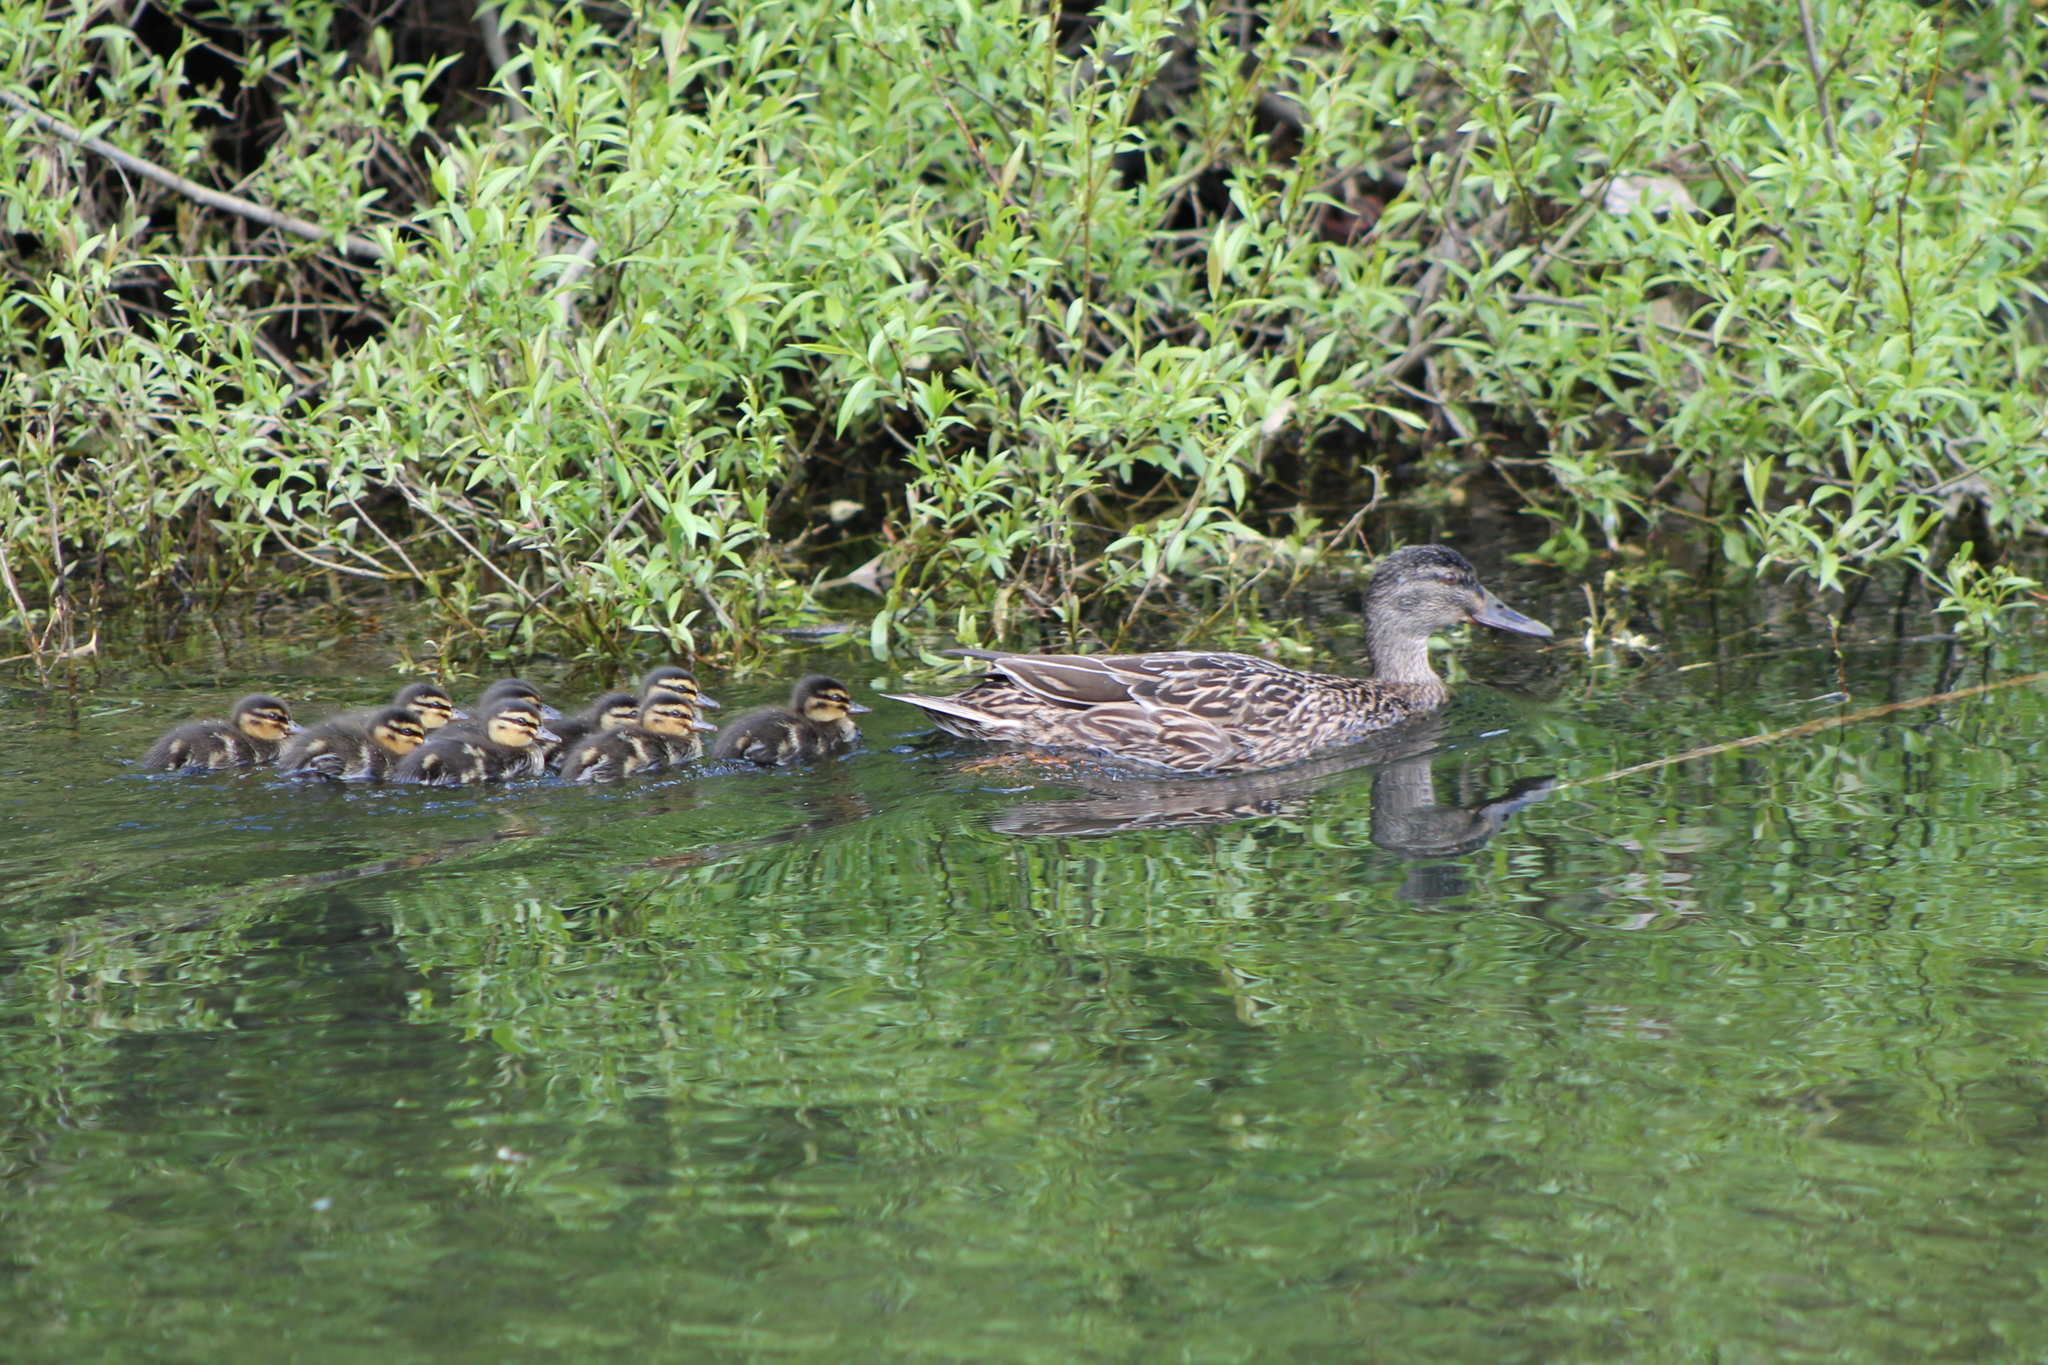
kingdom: Animalia
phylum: Chordata
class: Aves
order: Anseriformes
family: Anatidae
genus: Anas
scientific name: Anas platyrhynchos
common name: Mallard
